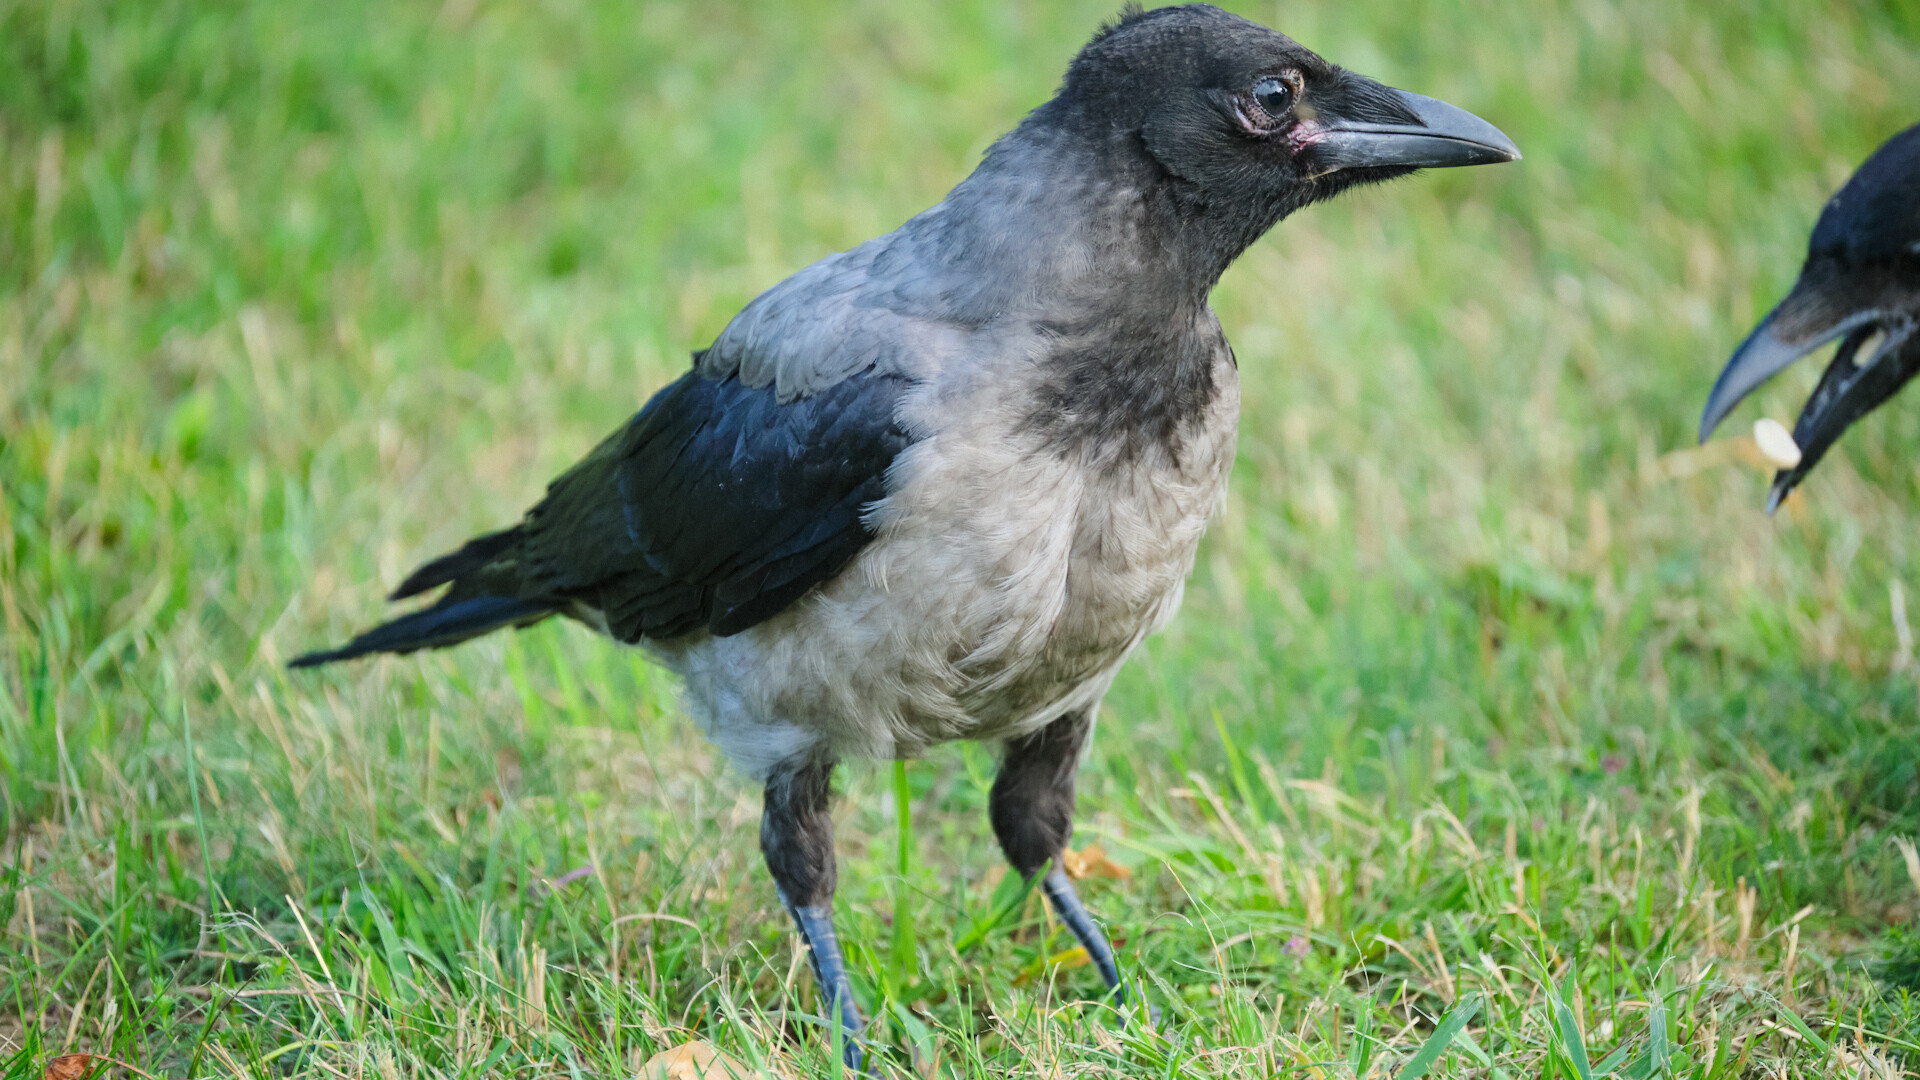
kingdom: Animalia
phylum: Chordata
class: Aves
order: Passeriformes
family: Corvidae
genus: Corvus
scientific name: Corvus cornix
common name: Hooded crow
